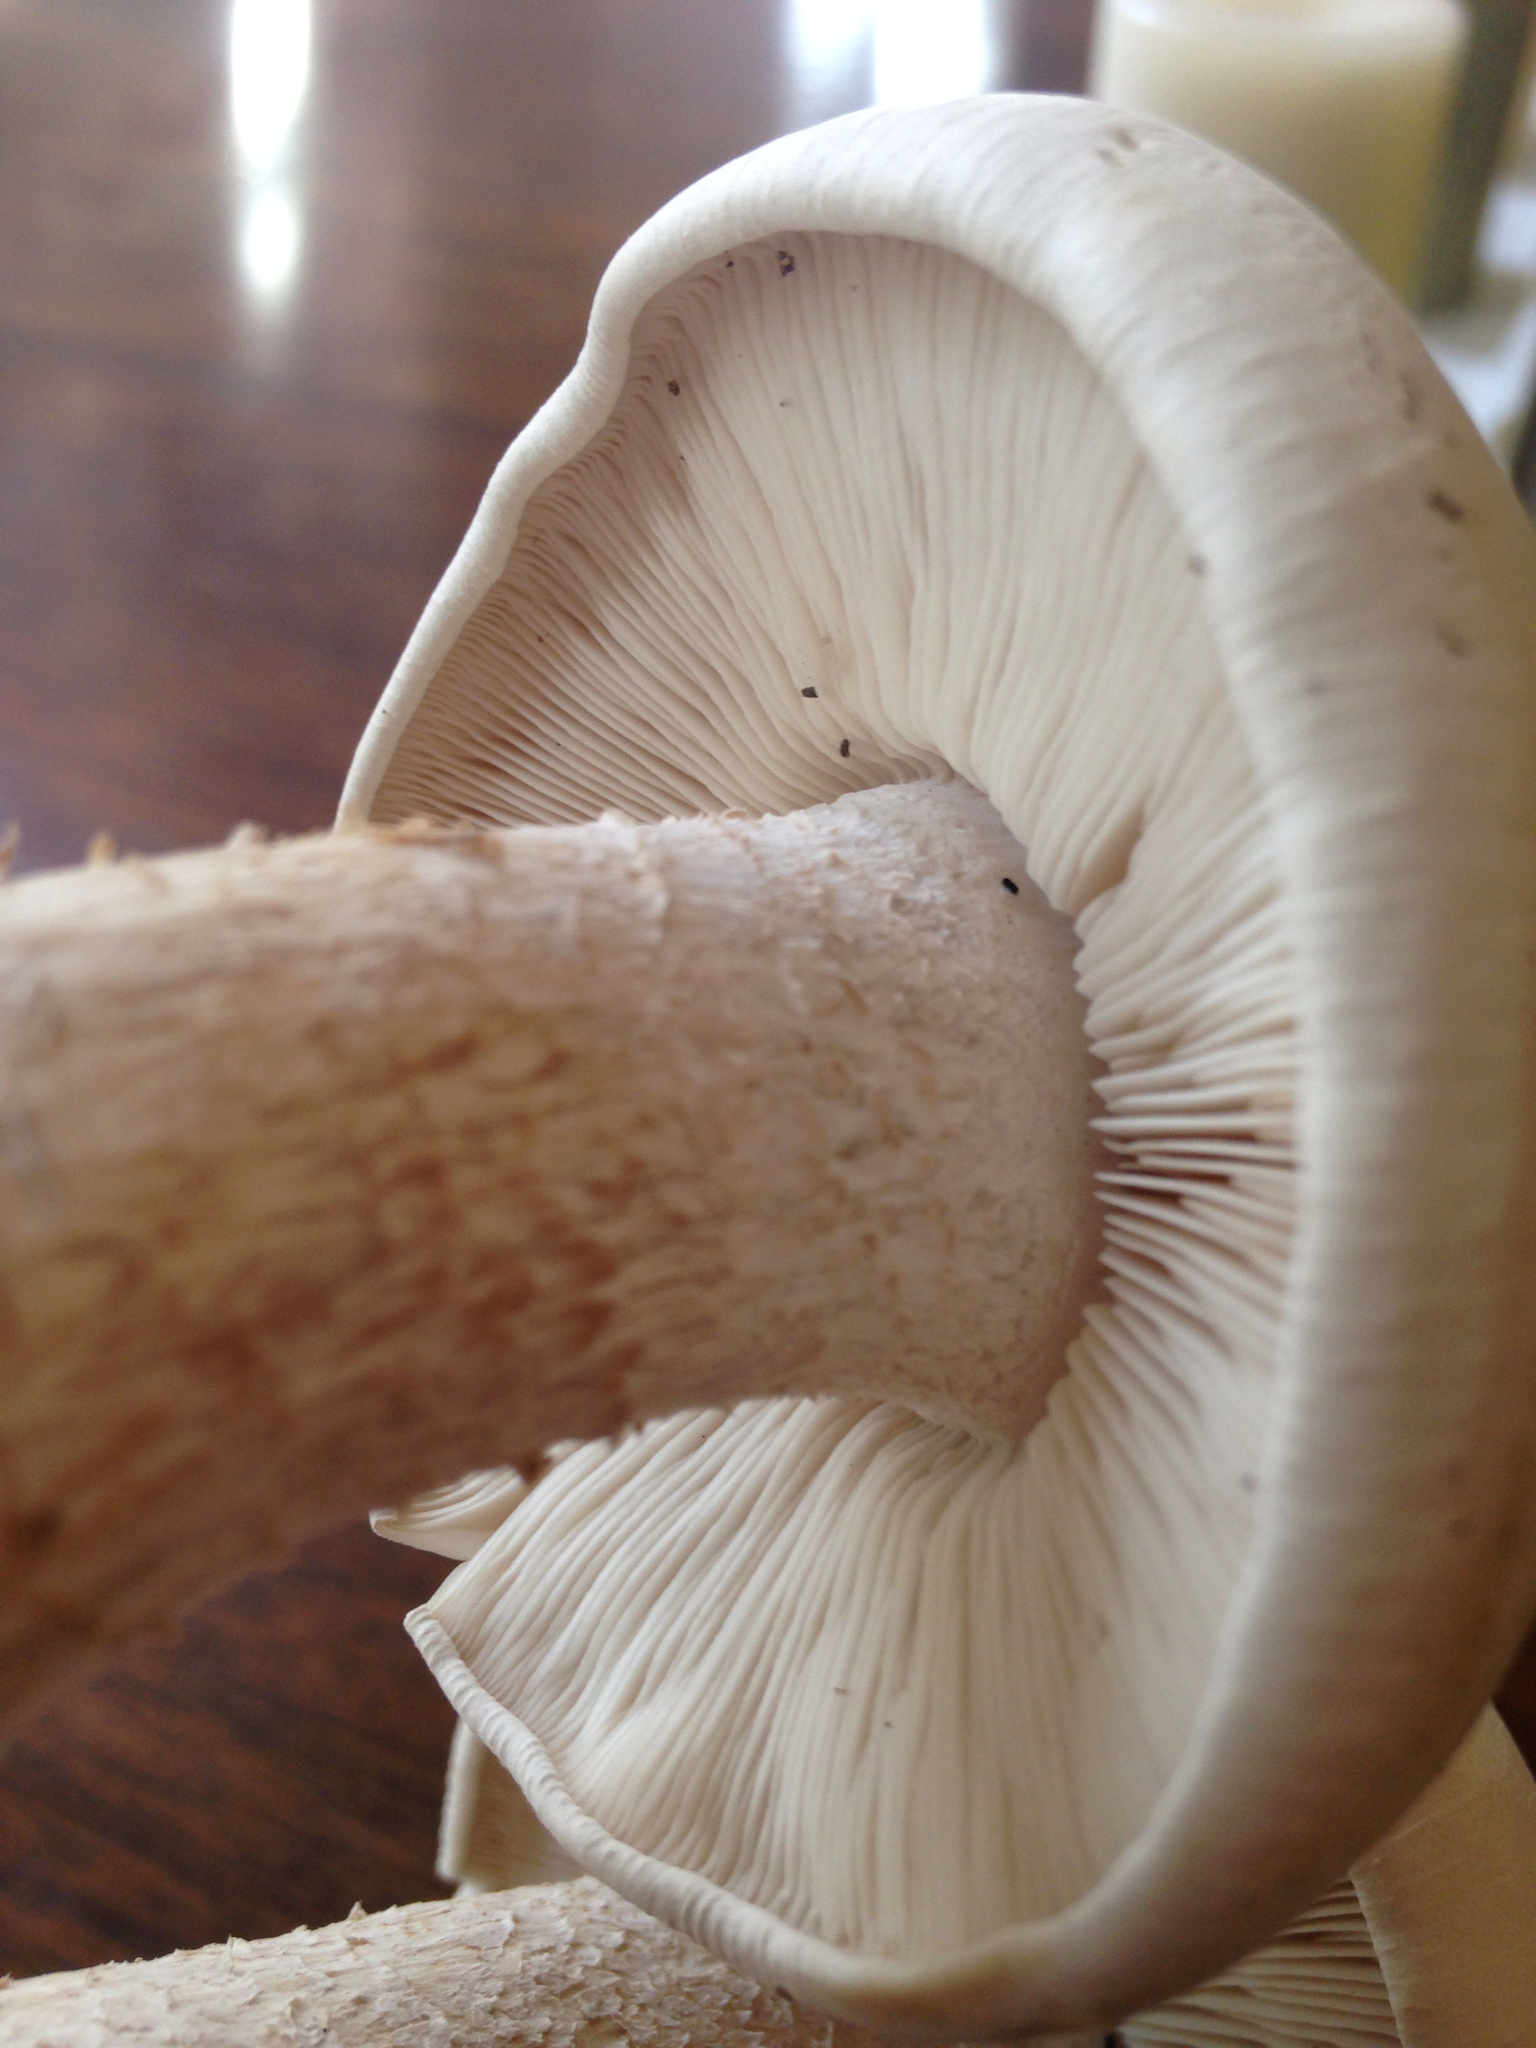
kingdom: Fungi
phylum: Basidiomycota
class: Agaricomycetes
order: Agaricales
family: Callistosporiaceae
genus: Macrocybe
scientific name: Macrocybe titans
